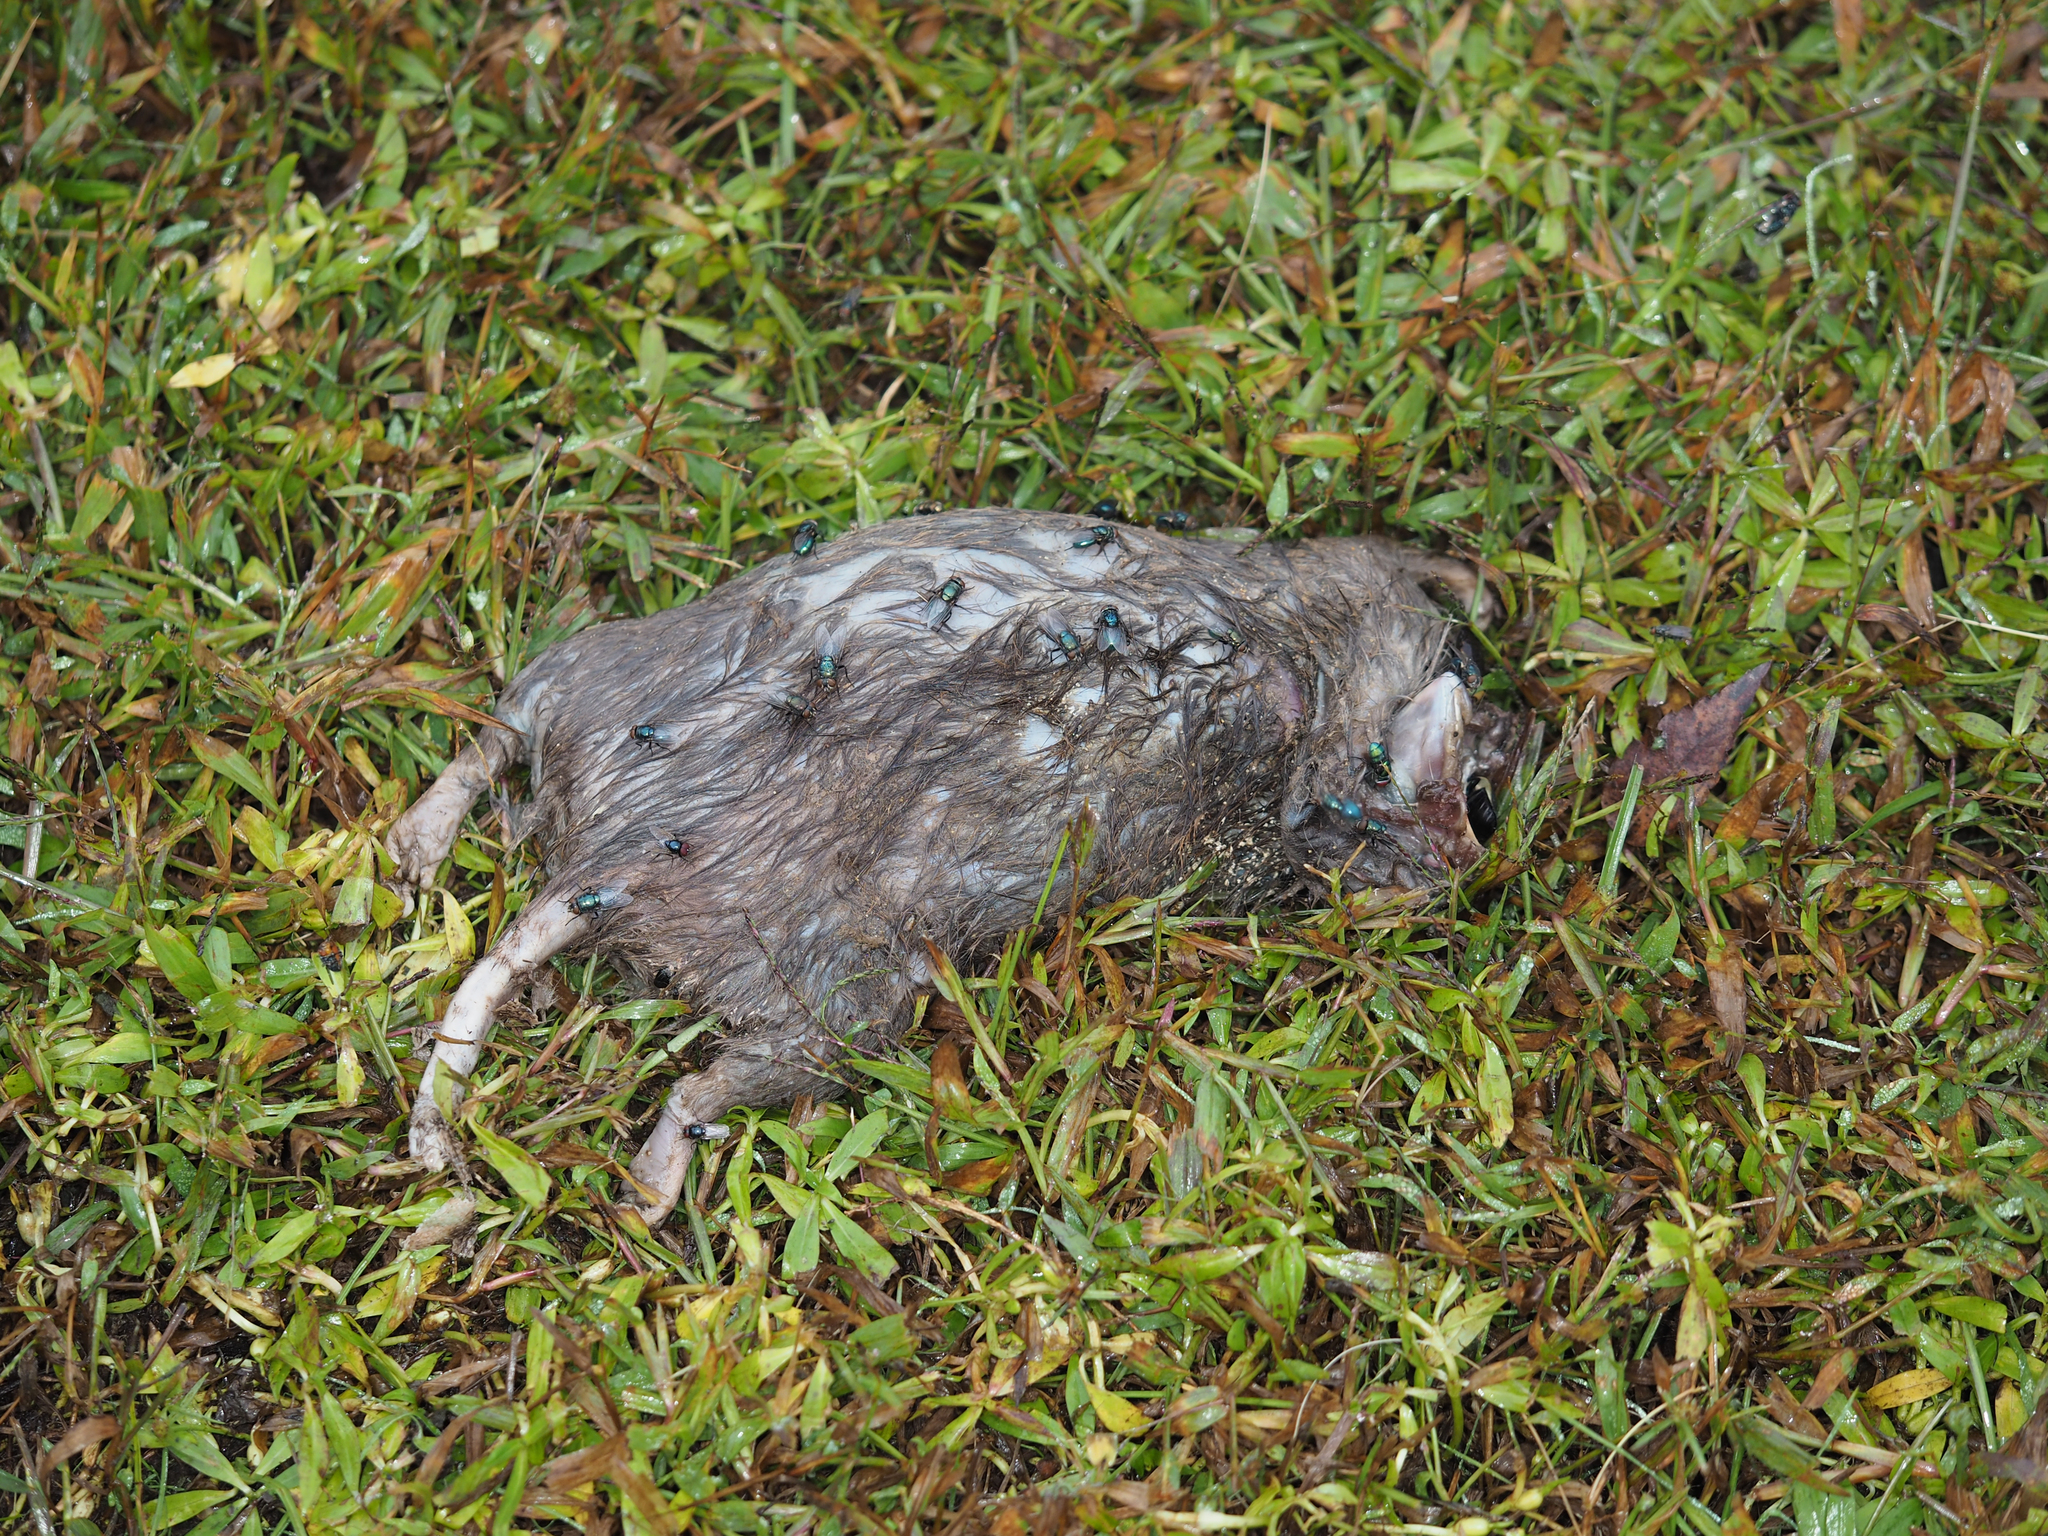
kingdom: Animalia
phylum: Chordata
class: Mammalia
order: Didelphimorphia
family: Didelphidae
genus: Didelphis
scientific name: Didelphis virginiana
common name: Virginia opossum
